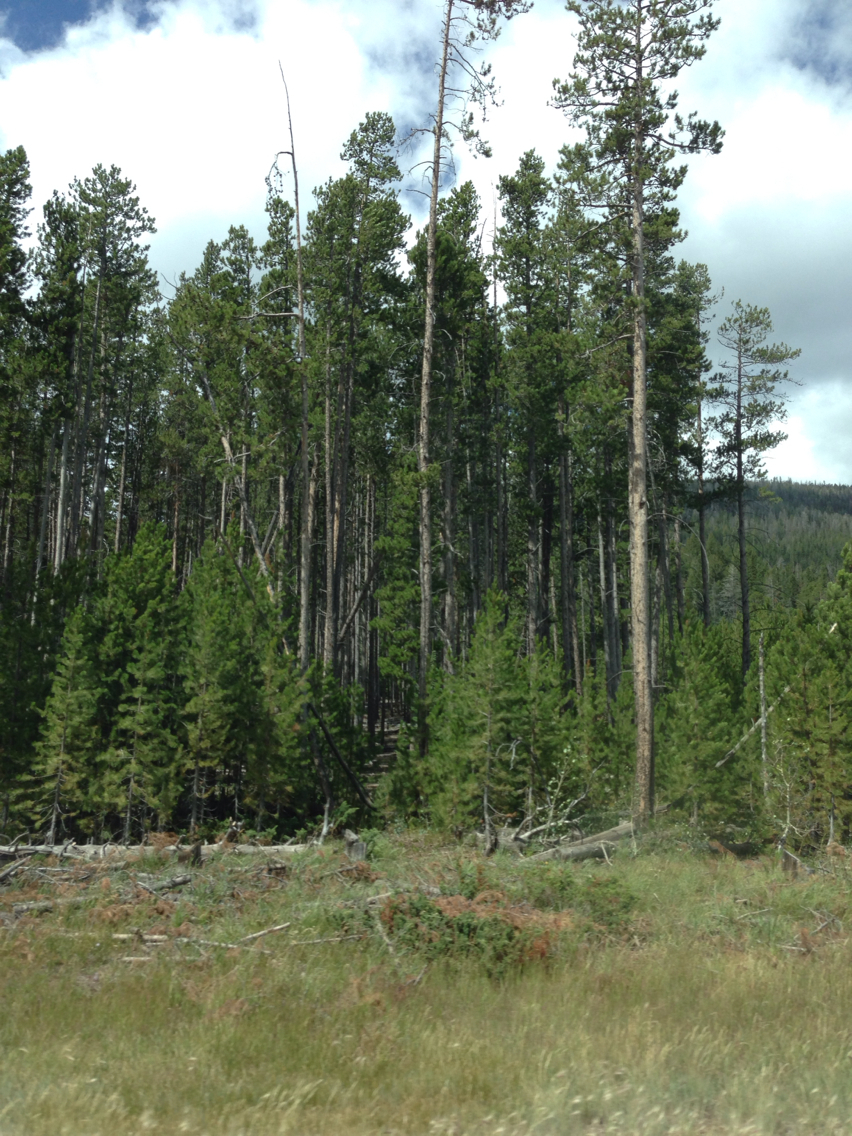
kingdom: Plantae
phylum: Tracheophyta
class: Pinopsida
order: Pinales
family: Pinaceae
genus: Pinus
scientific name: Pinus contorta
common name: Lodgepole pine
